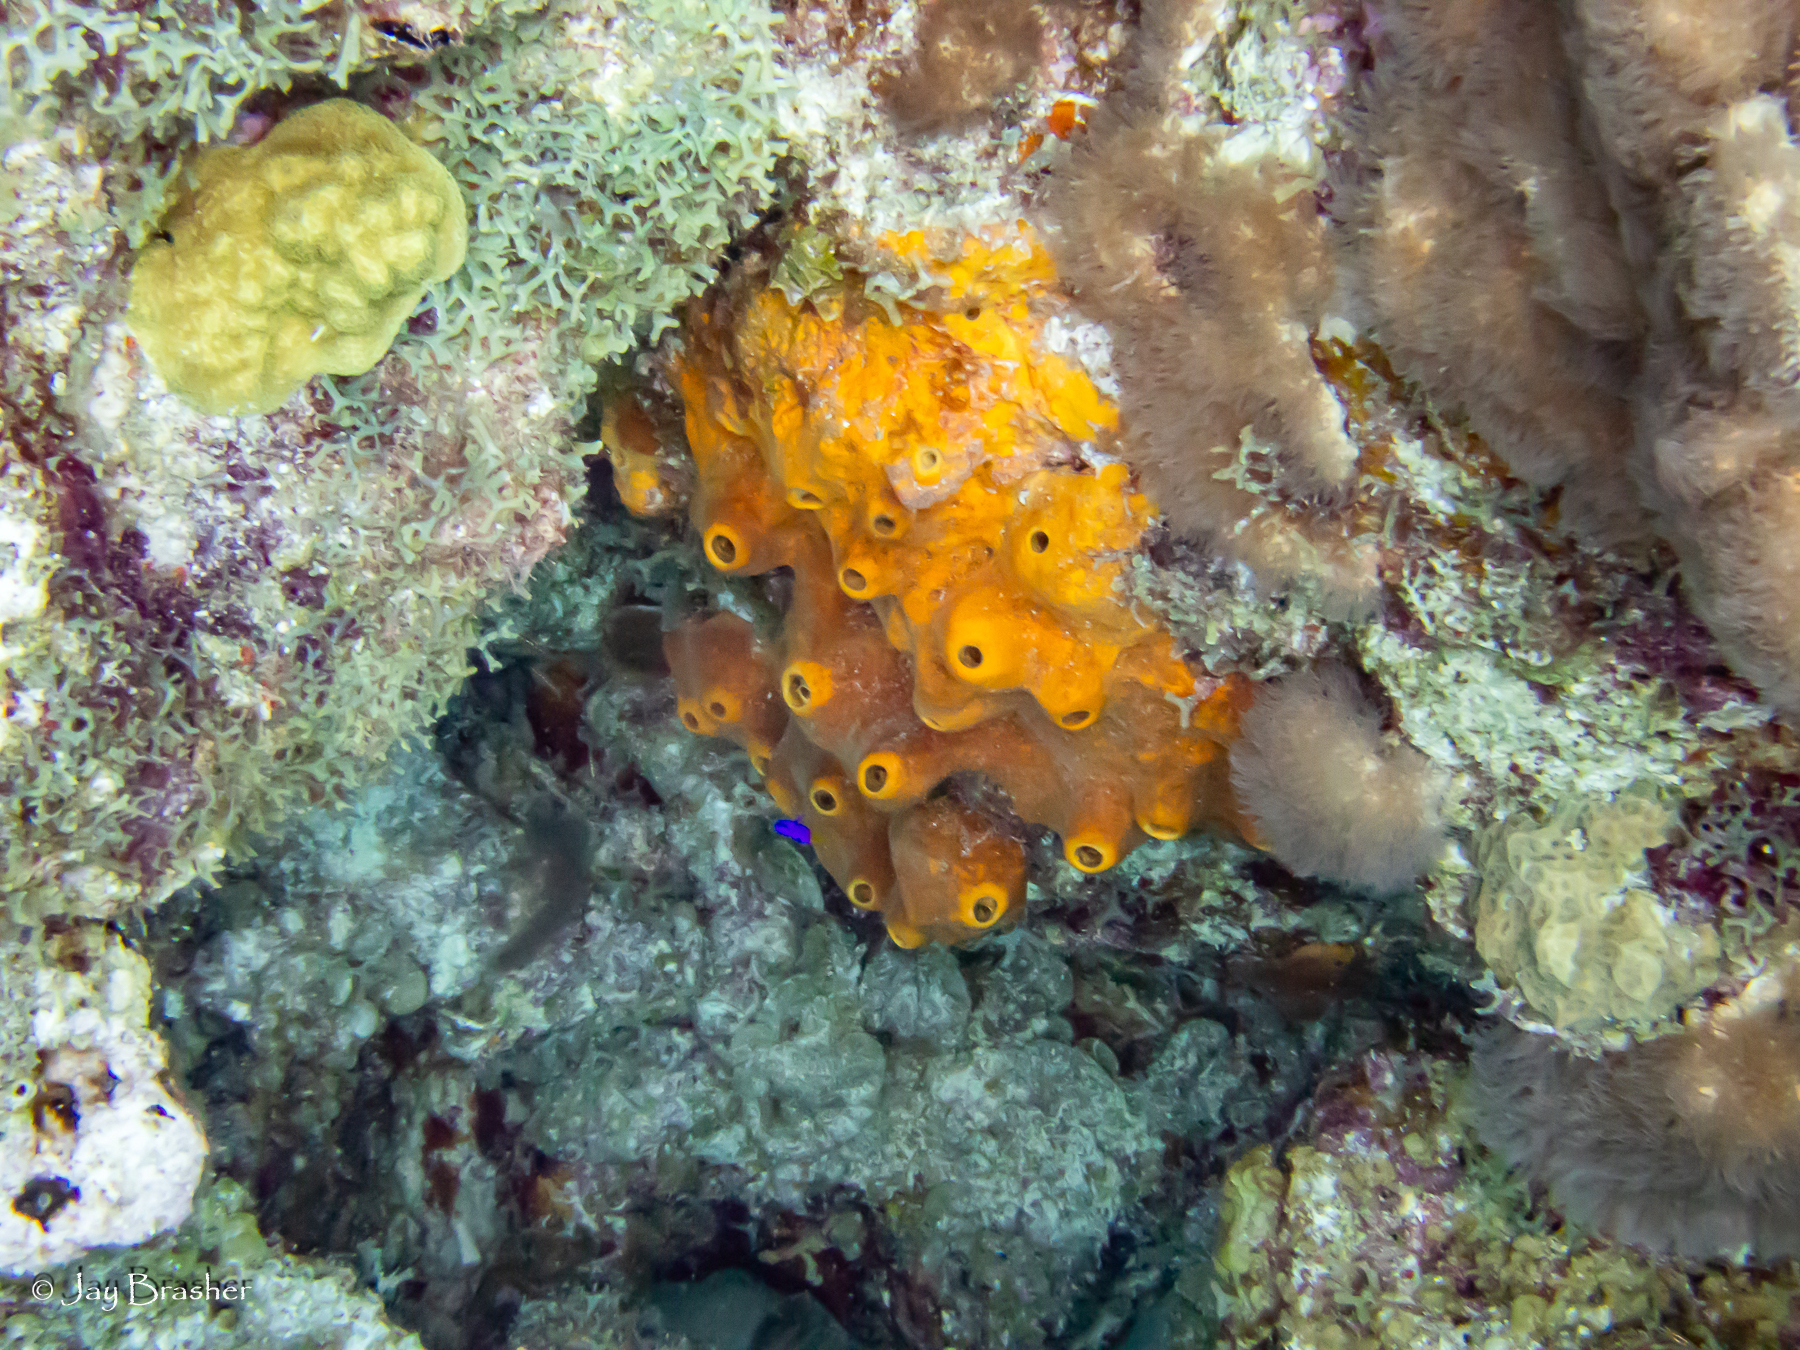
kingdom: Animalia
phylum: Porifera
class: Demospongiae
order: Axinellida
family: Raspailiidae
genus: Ectyoplasia
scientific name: Ectyoplasia ferox
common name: Brown encrusting octopus sponge
